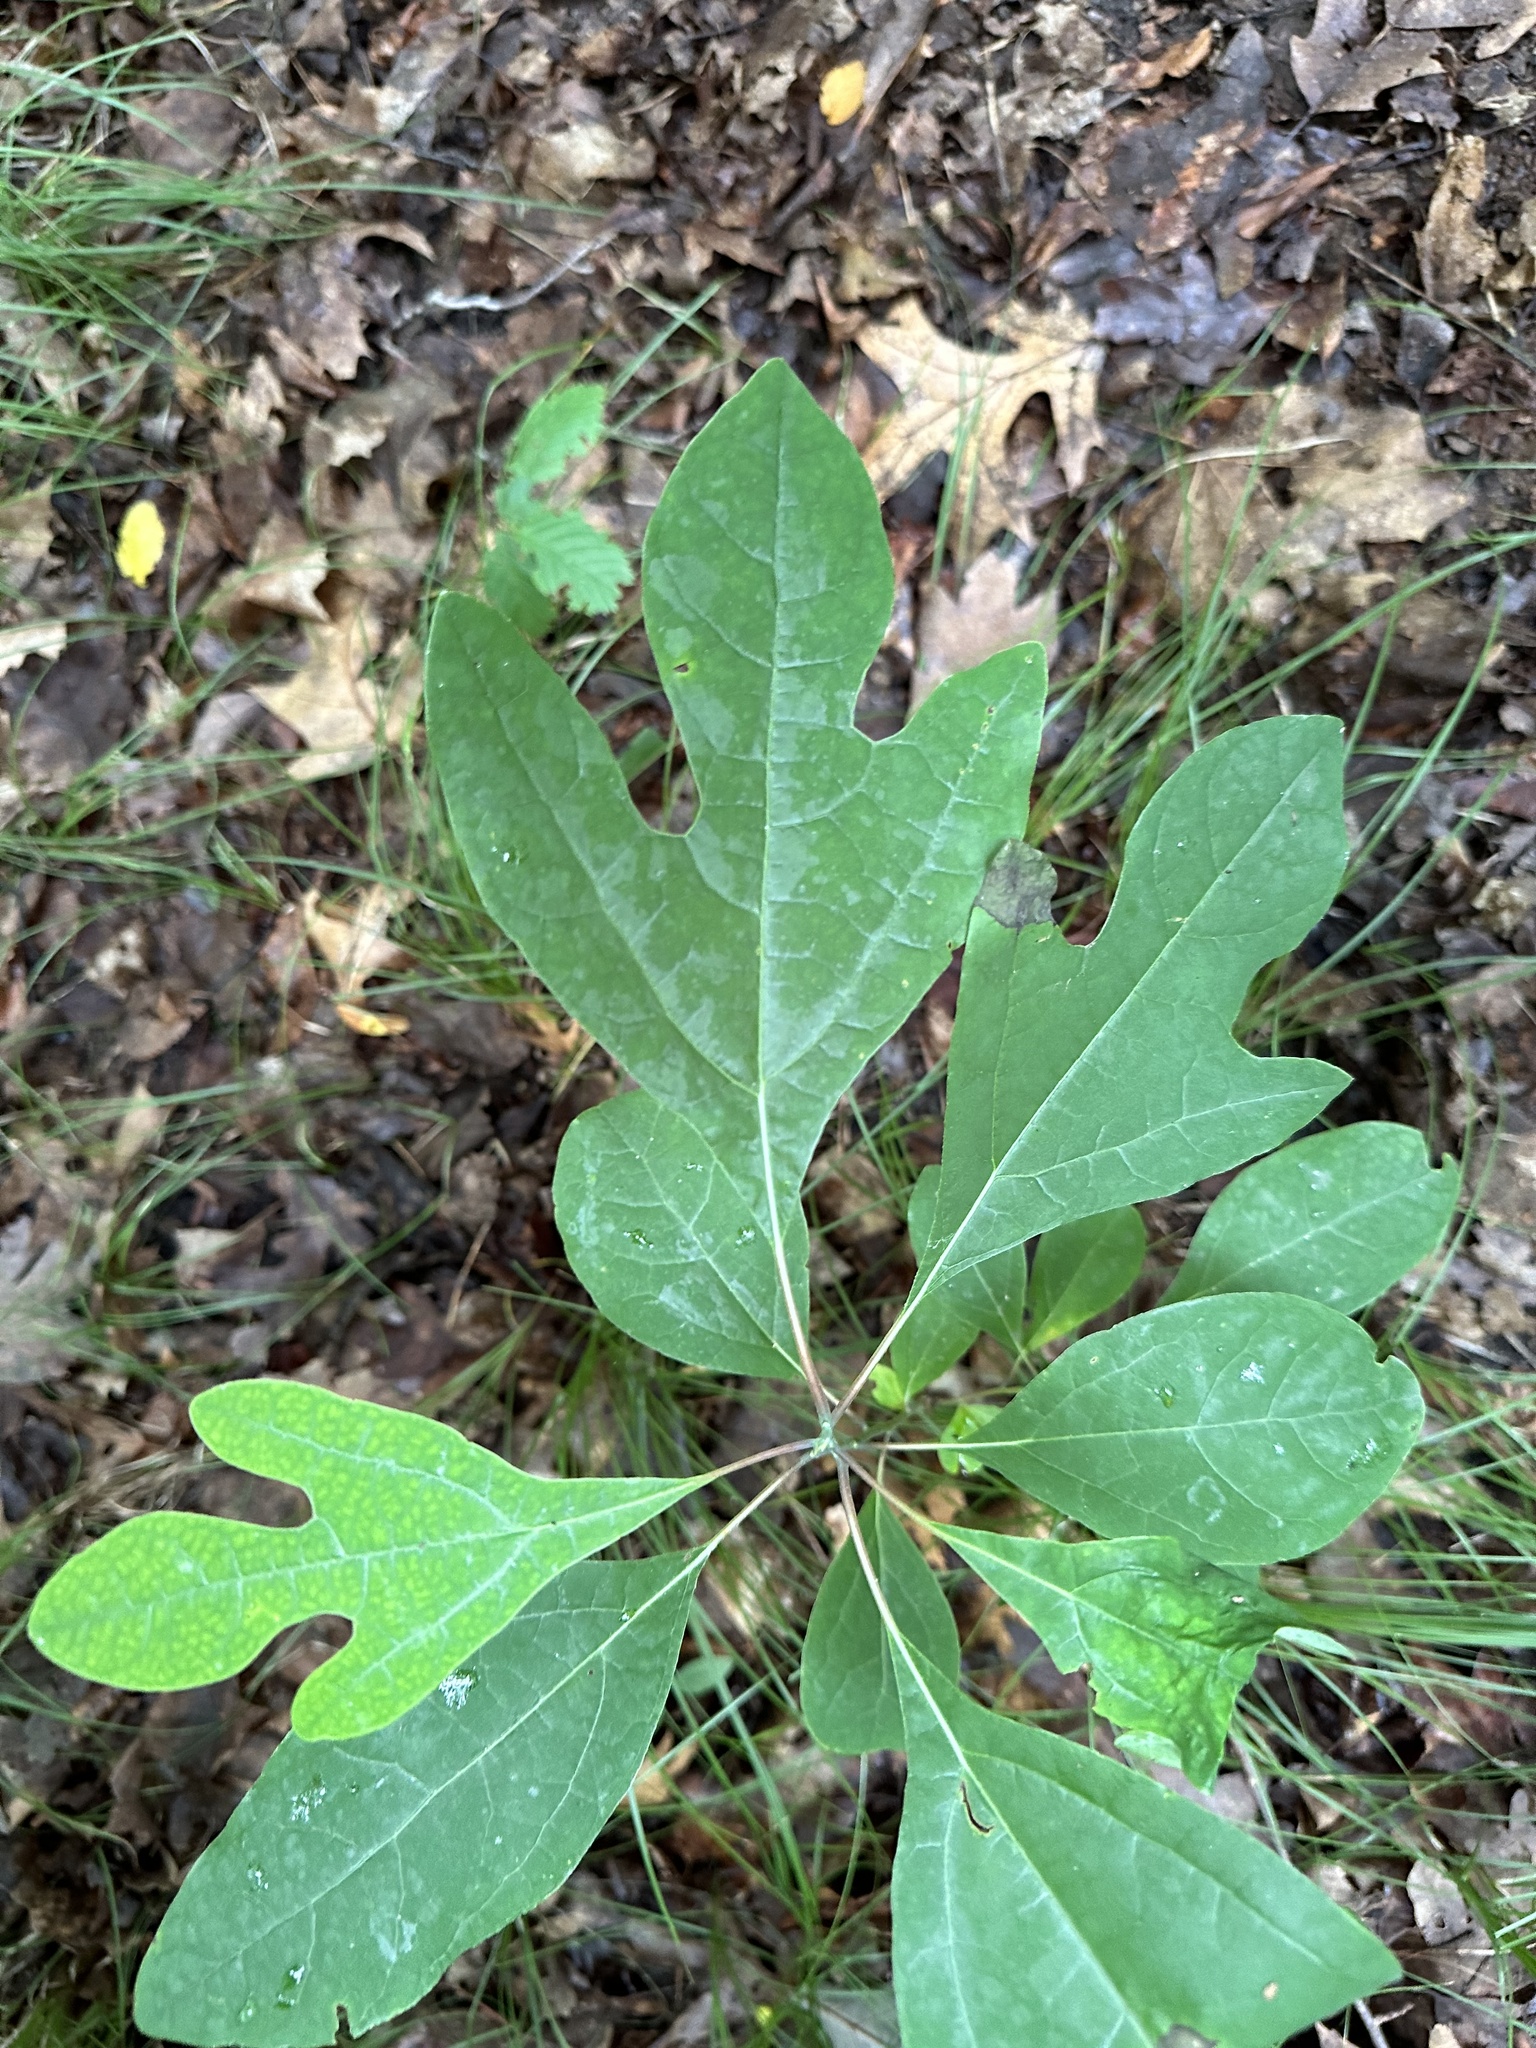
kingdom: Plantae
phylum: Tracheophyta
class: Magnoliopsida
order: Laurales
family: Lauraceae
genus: Sassafras
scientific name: Sassafras albidum
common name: Sassafras
